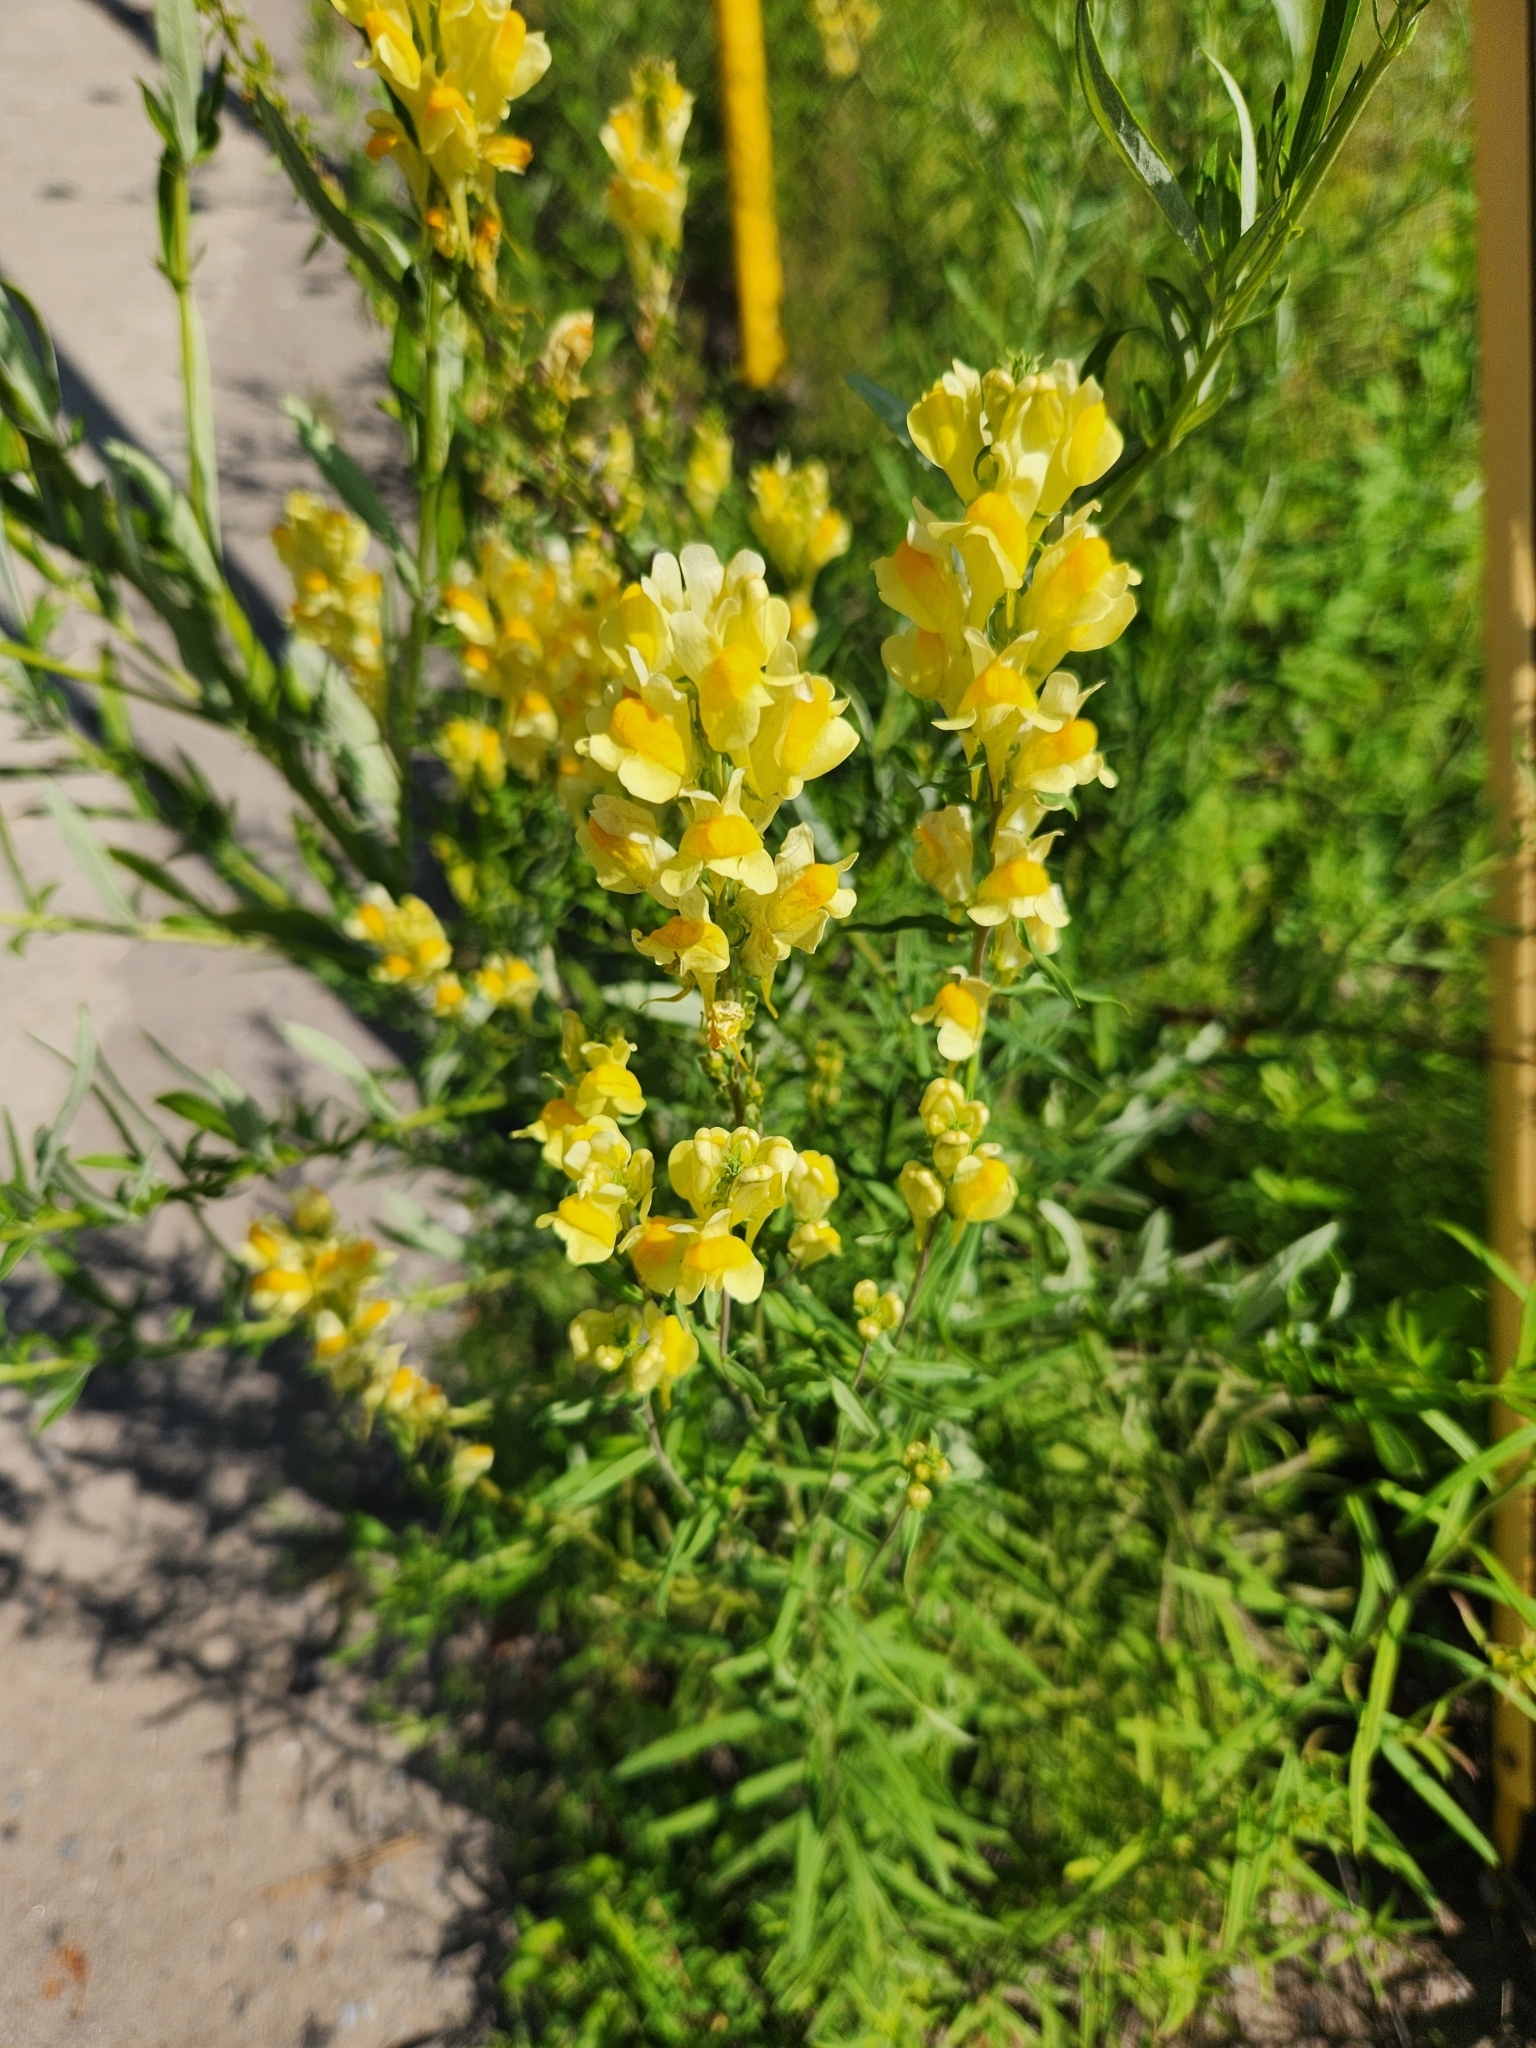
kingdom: Plantae
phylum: Tracheophyta
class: Magnoliopsida
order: Lamiales
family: Plantaginaceae
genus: Linaria
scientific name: Linaria vulgaris
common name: Butter and eggs
